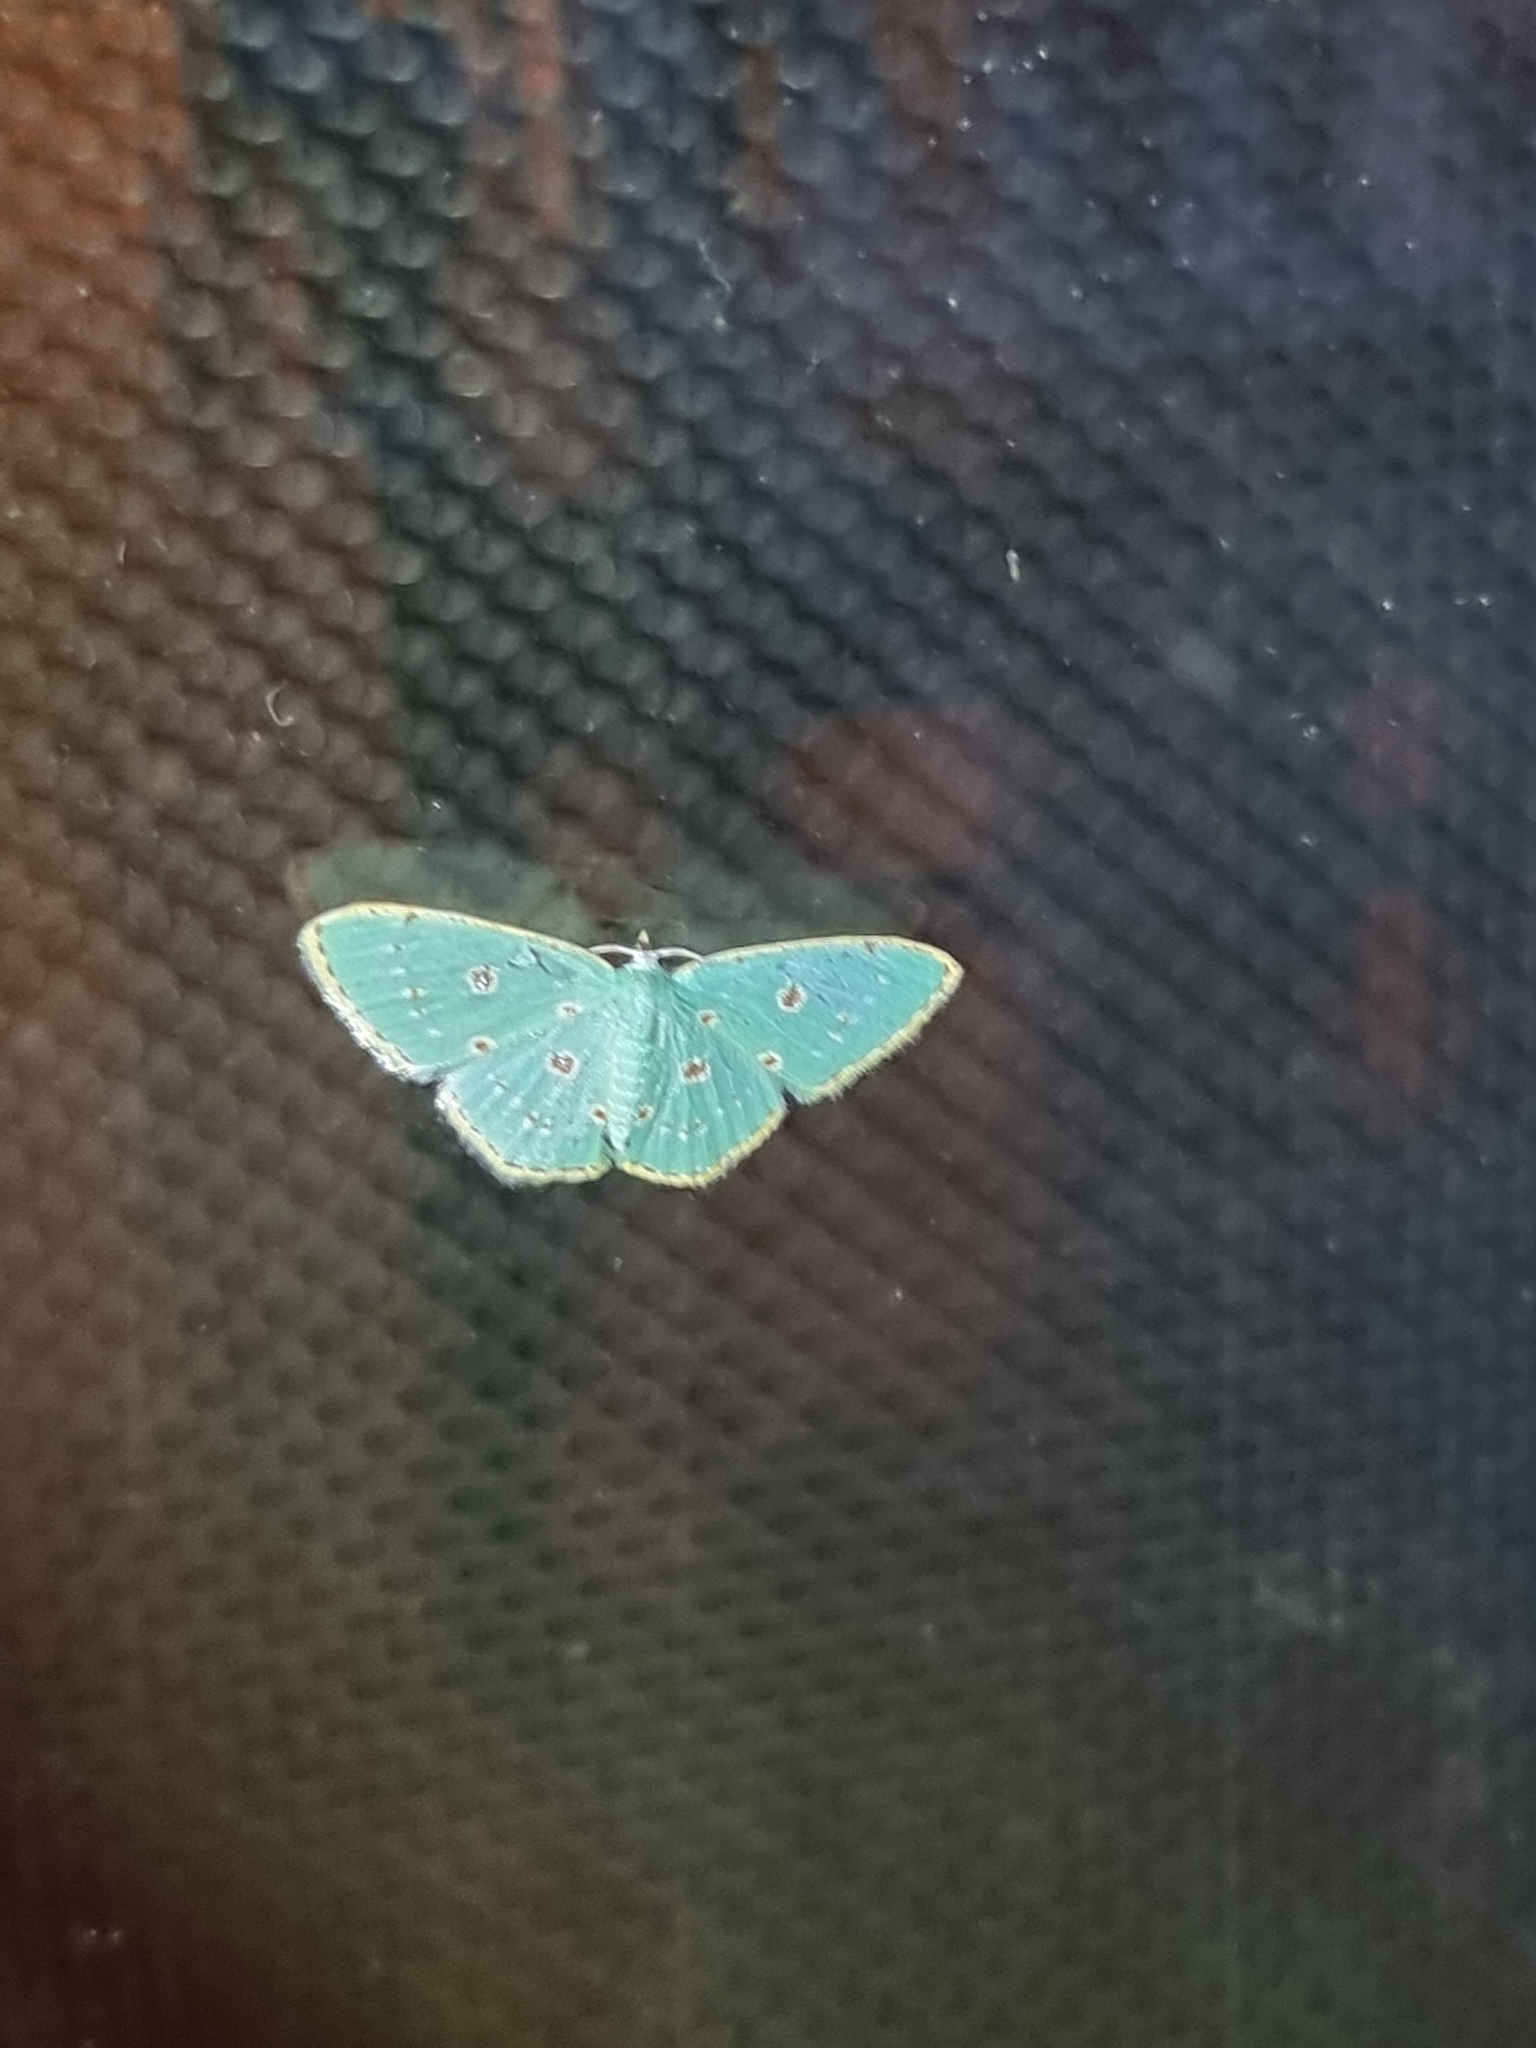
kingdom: Animalia
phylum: Arthropoda
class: Insecta
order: Lepidoptera
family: Geometridae
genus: Comostola
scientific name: Comostola laesaria
